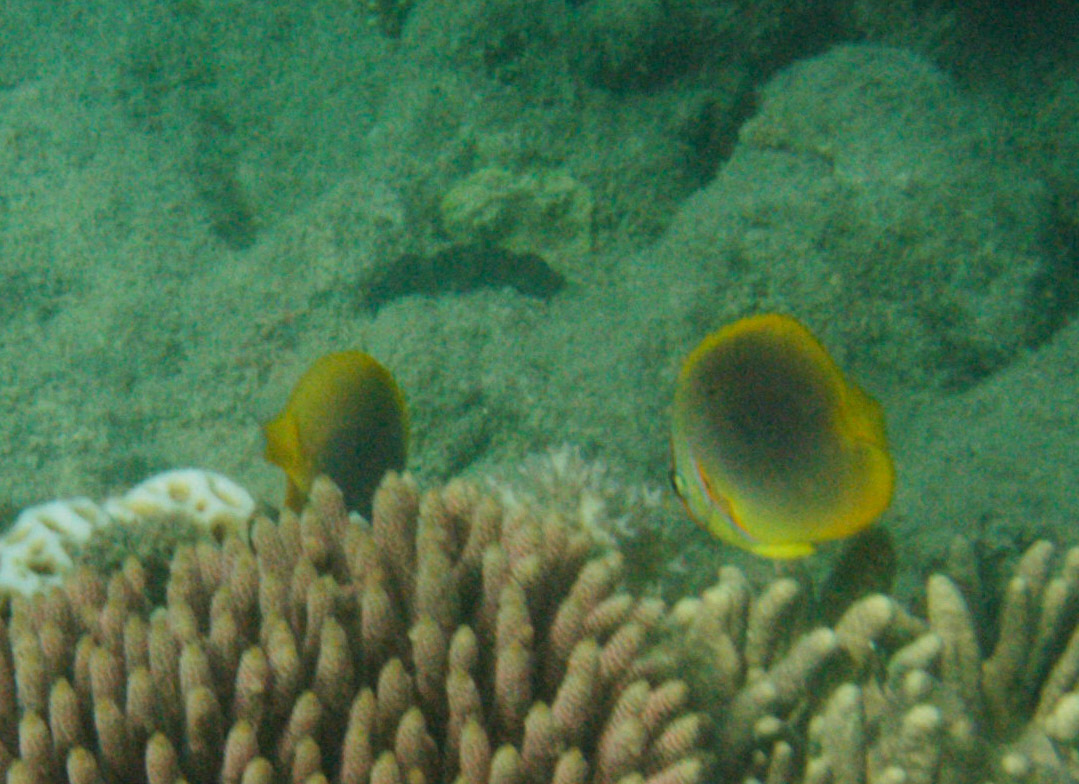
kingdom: Animalia
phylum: Chordata
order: Perciformes
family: Chaetodontidae
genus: Chaetodon
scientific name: Chaetodon aureofasciatus
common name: Golden butterflyfish
